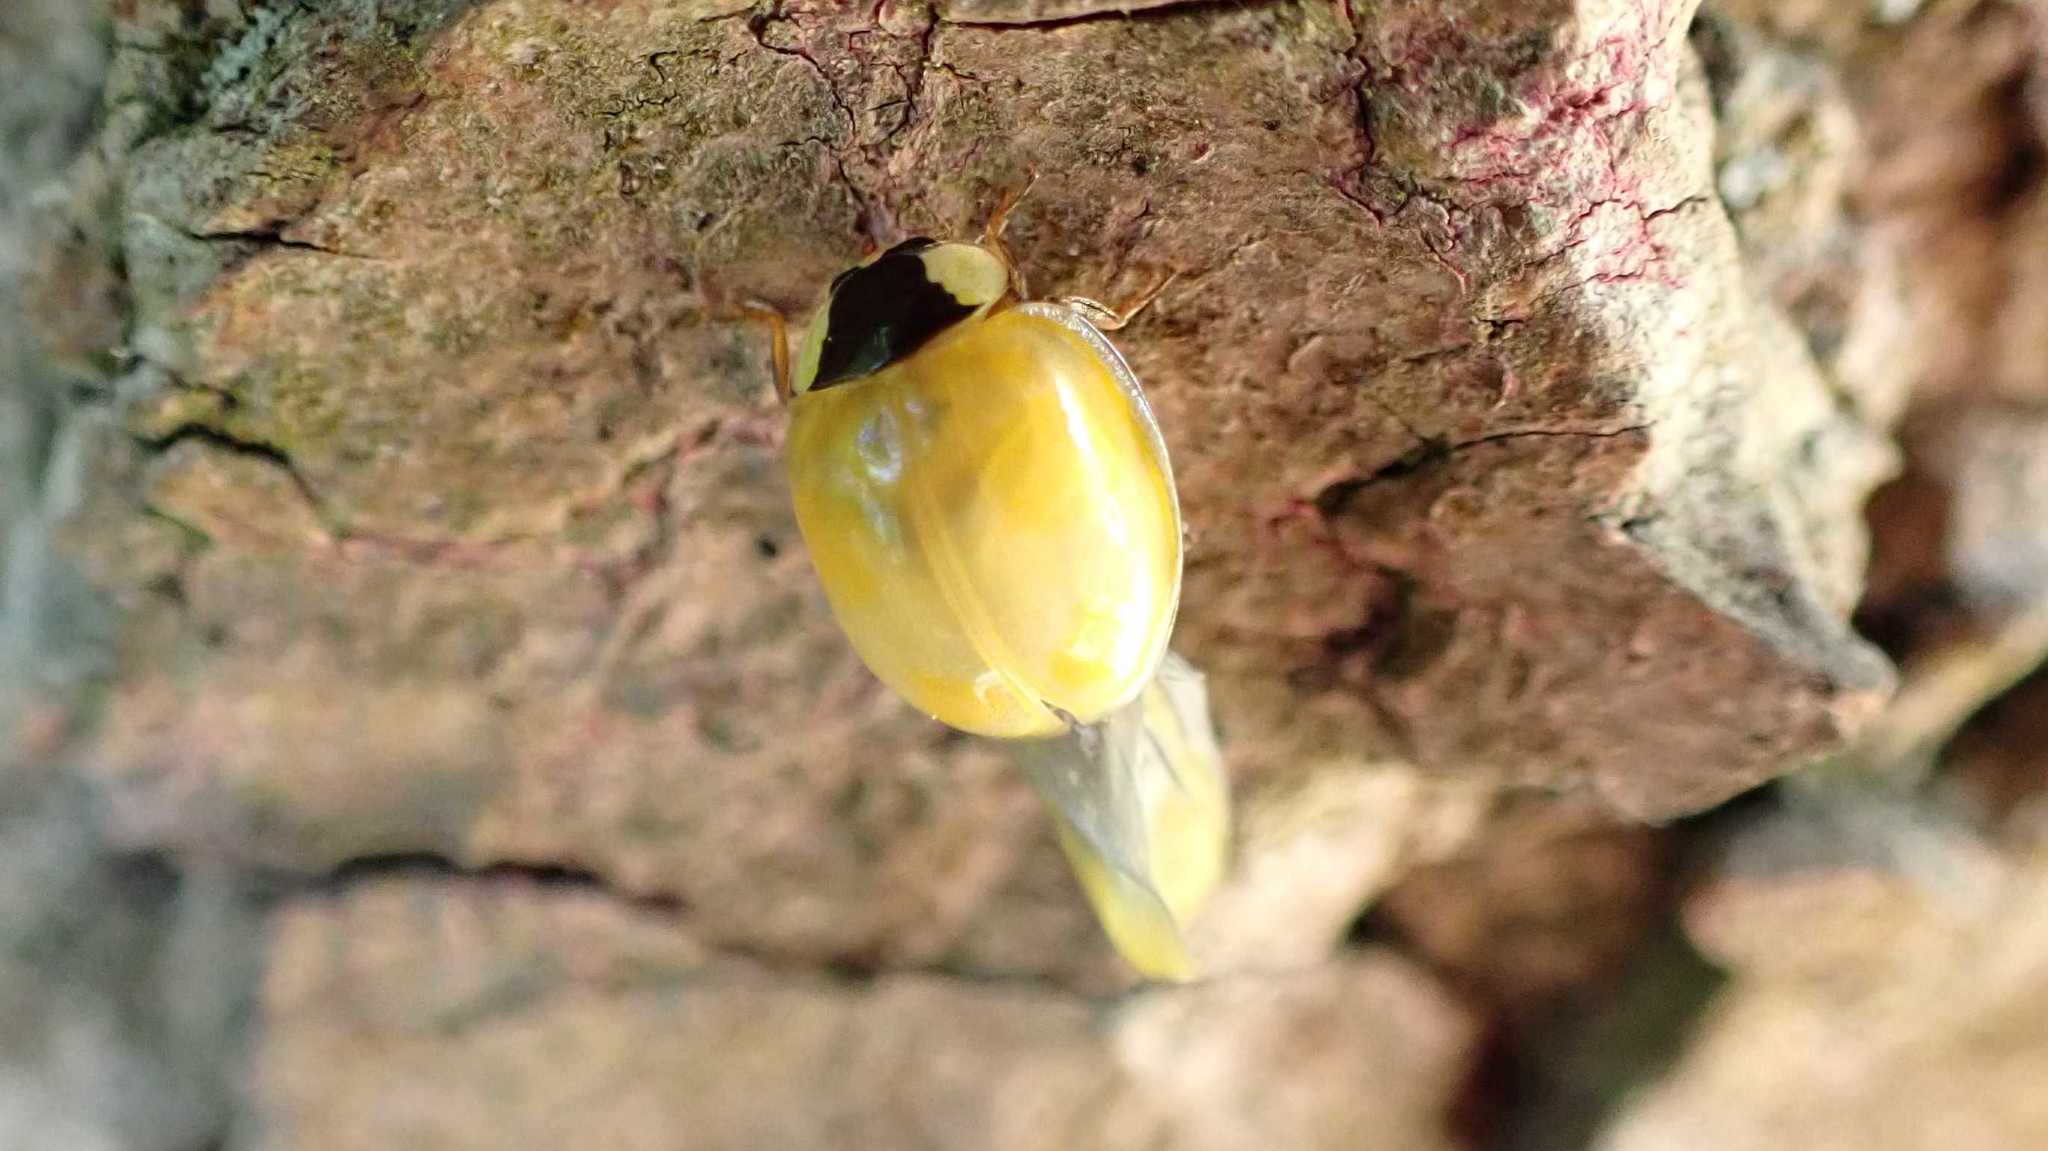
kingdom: Animalia
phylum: Arthropoda
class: Insecta
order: Coleoptera
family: Coccinellidae
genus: Harmonia
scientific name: Harmonia axyridis
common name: Harlequin ladybird
